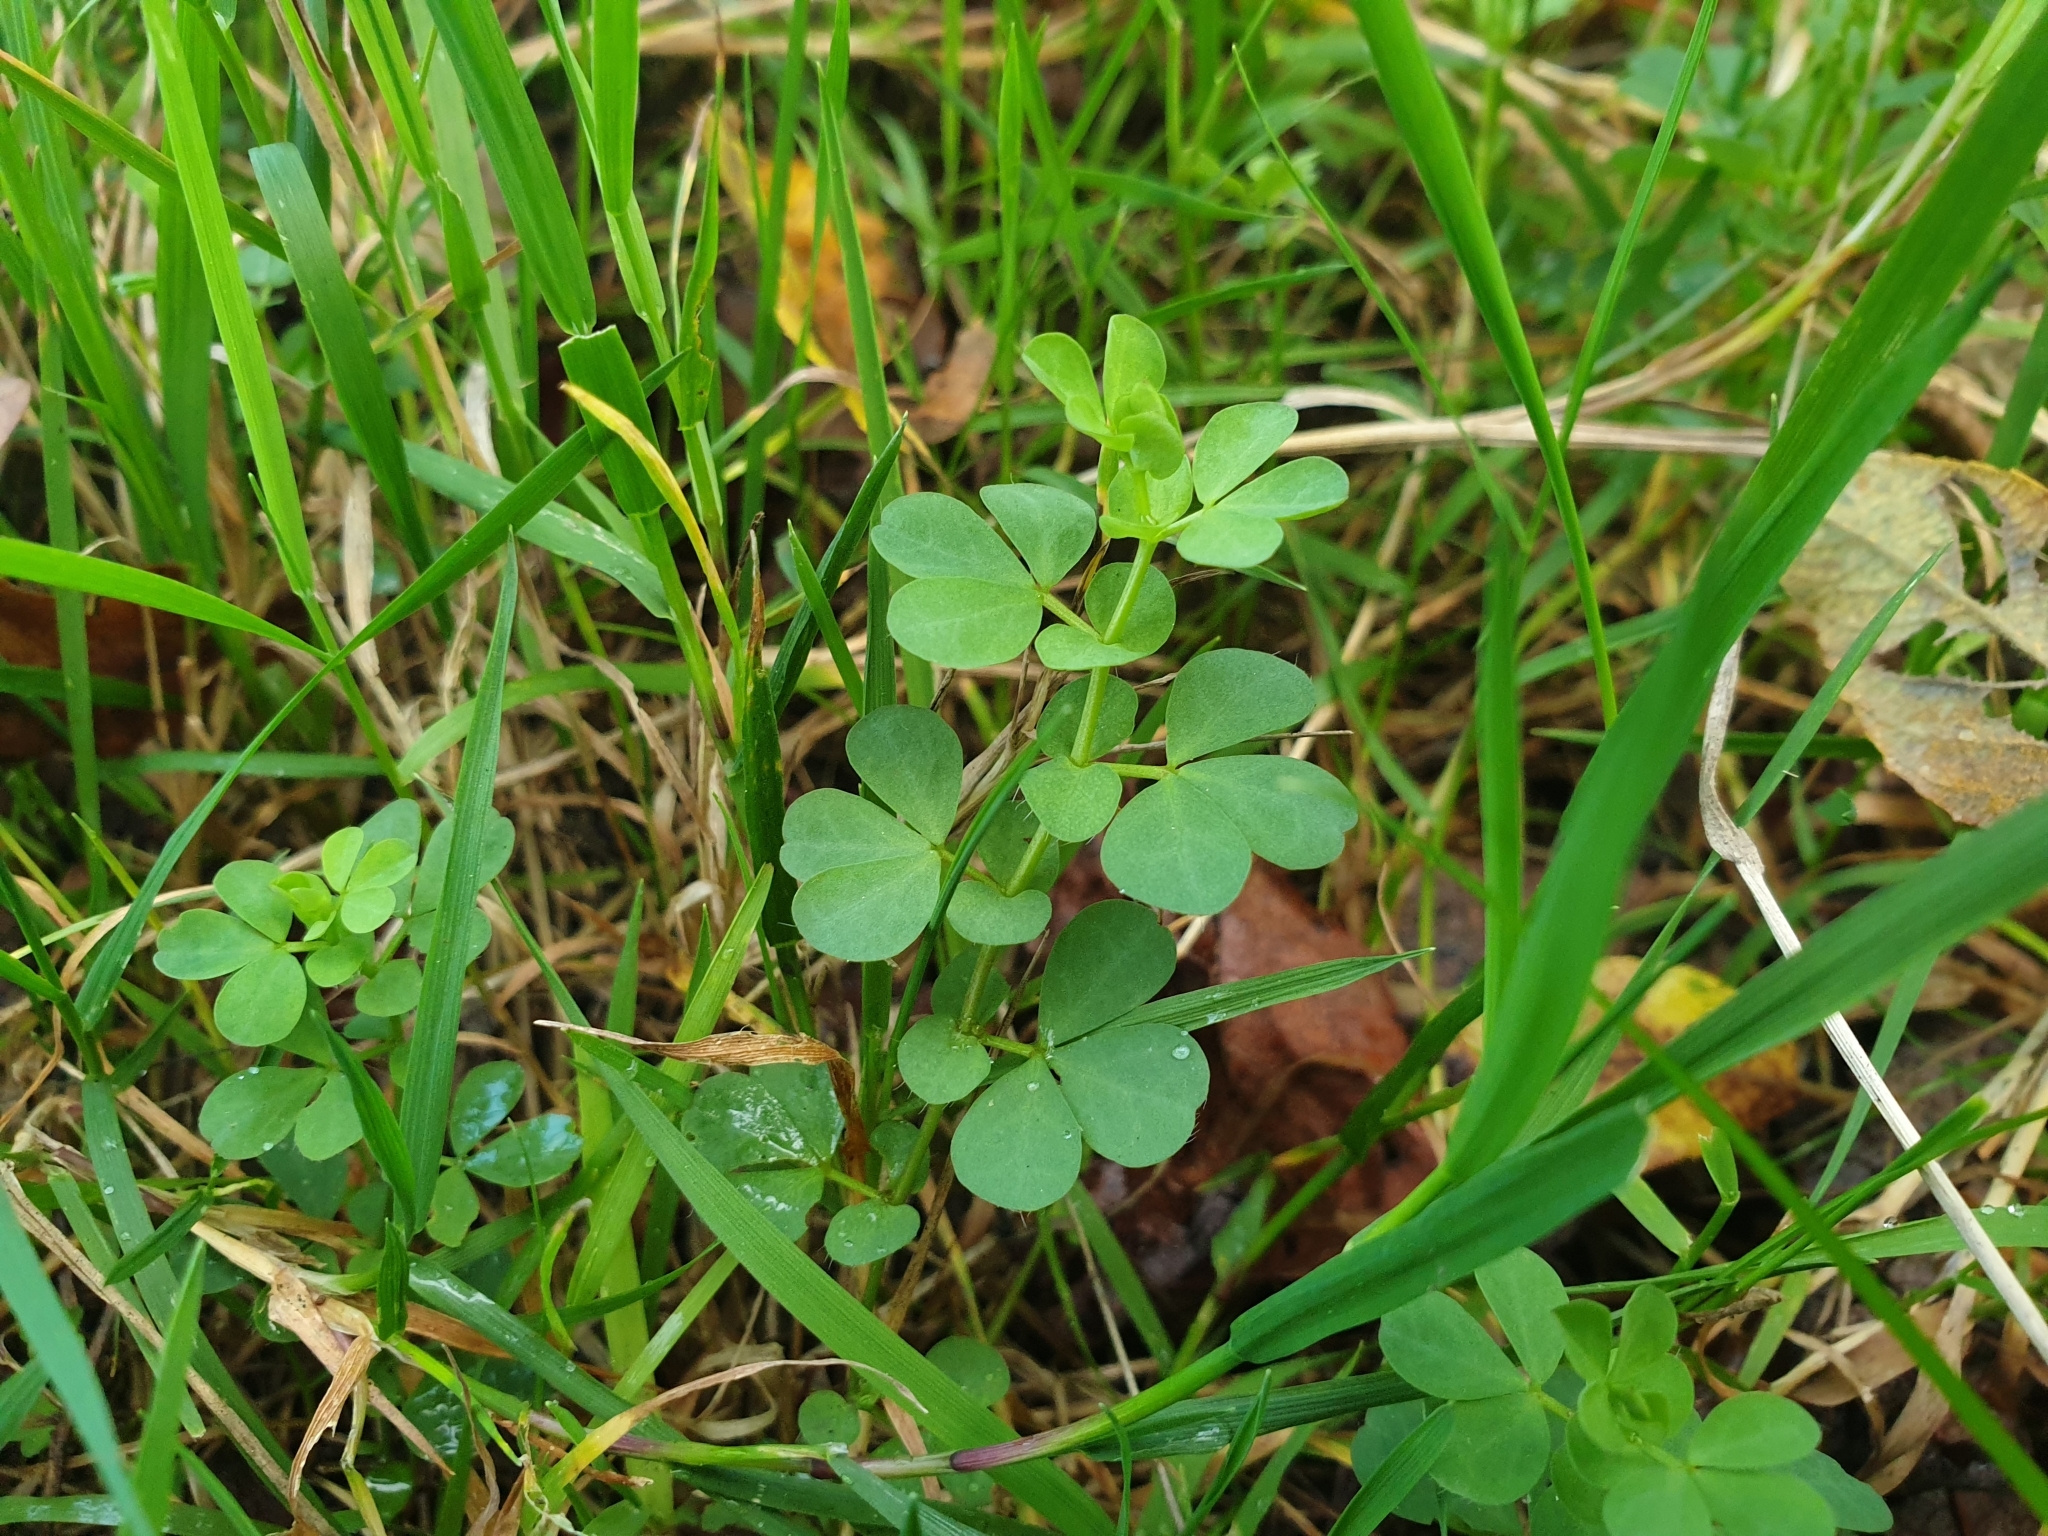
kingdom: Plantae
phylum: Tracheophyta
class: Magnoliopsida
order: Fabales
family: Fabaceae
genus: Lotus
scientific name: Lotus pedunculatus
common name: Greater birdsfoot-trefoil
